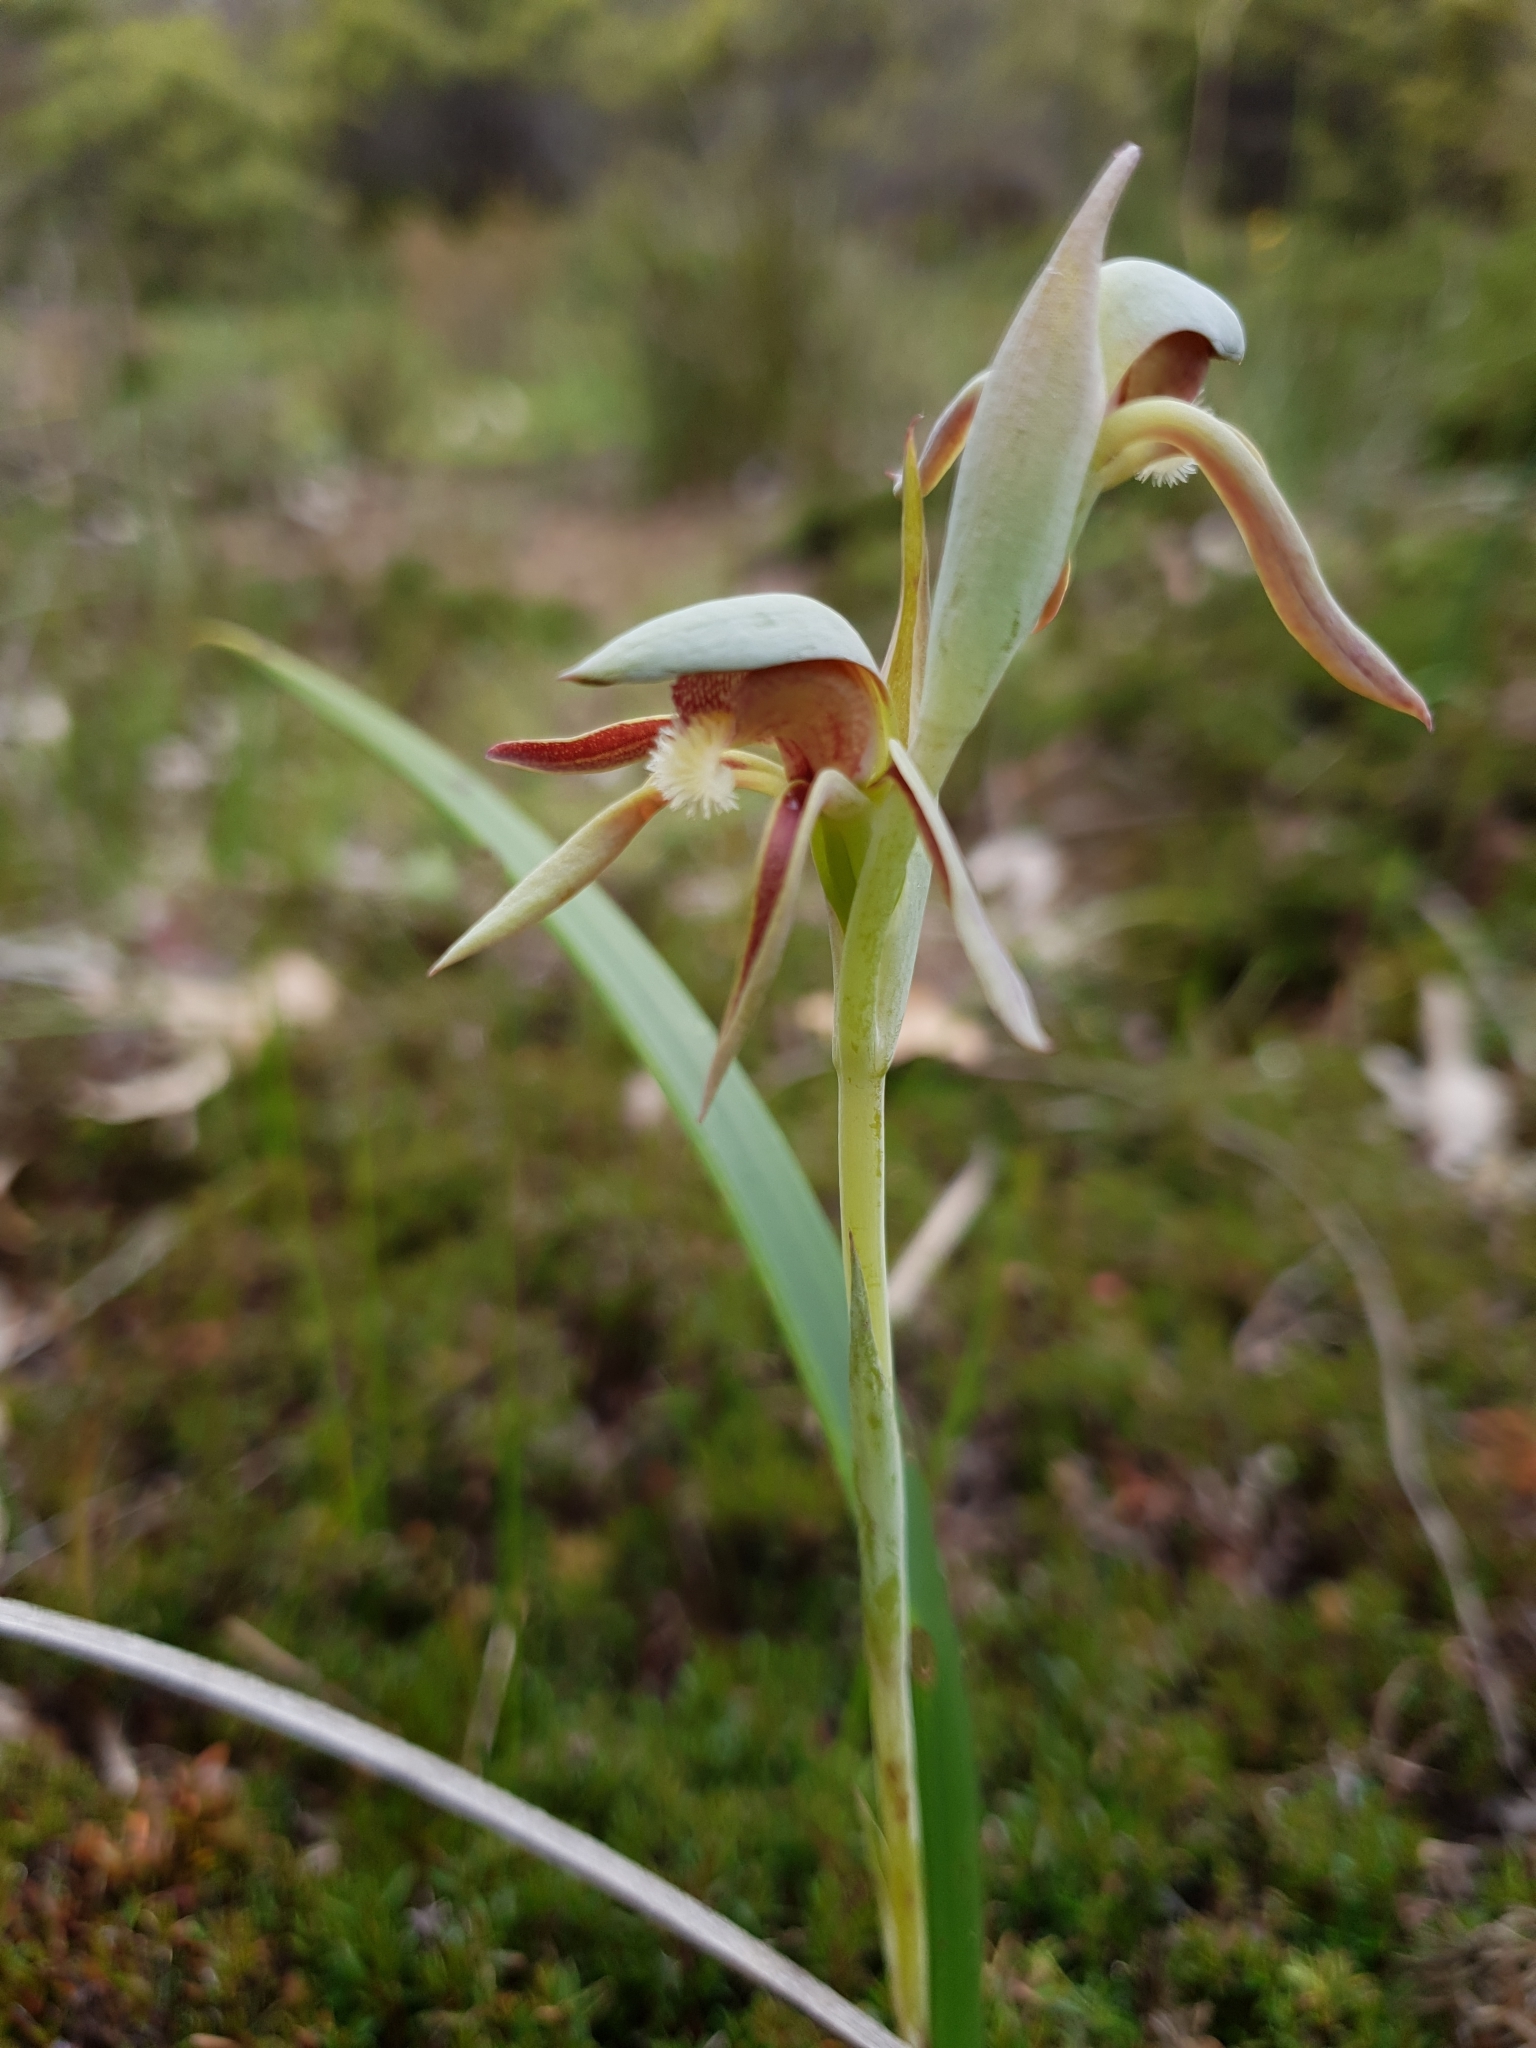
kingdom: Plantae
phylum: Tracheophyta
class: Liliopsida
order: Asparagales
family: Orchidaceae
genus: Lyperanthus
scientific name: Lyperanthus serratus
